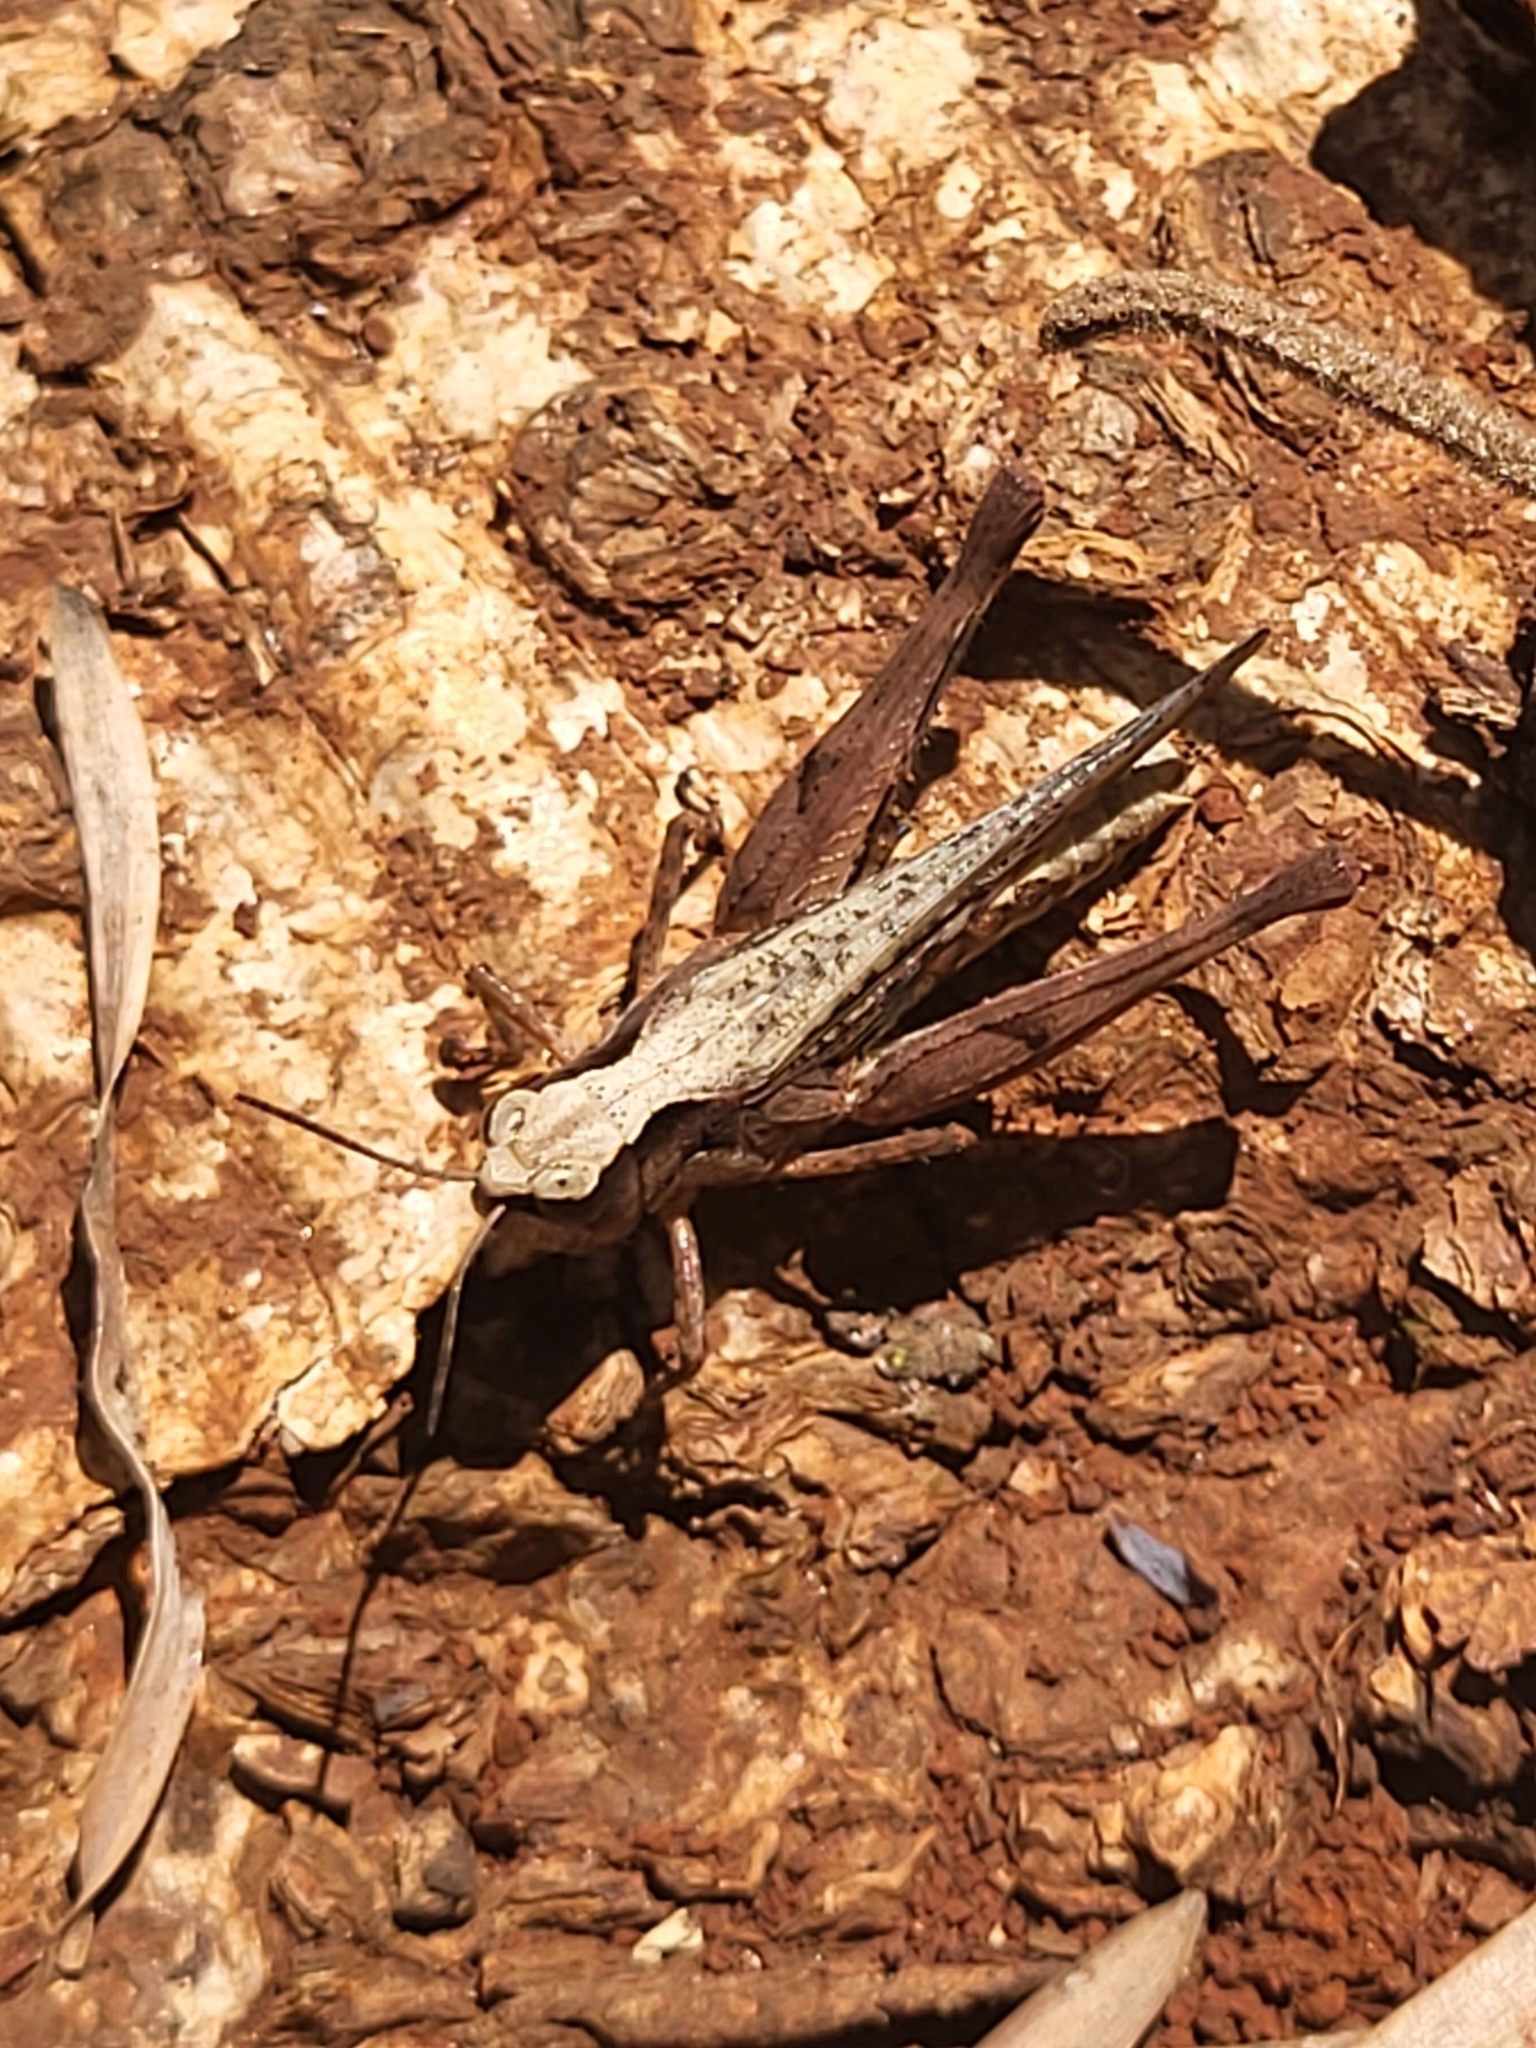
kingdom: Animalia
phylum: Arthropoda
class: Insecta
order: Orthoptera
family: Acrididae
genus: Gymnobothrus
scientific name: Gymnobothrus temporalis
